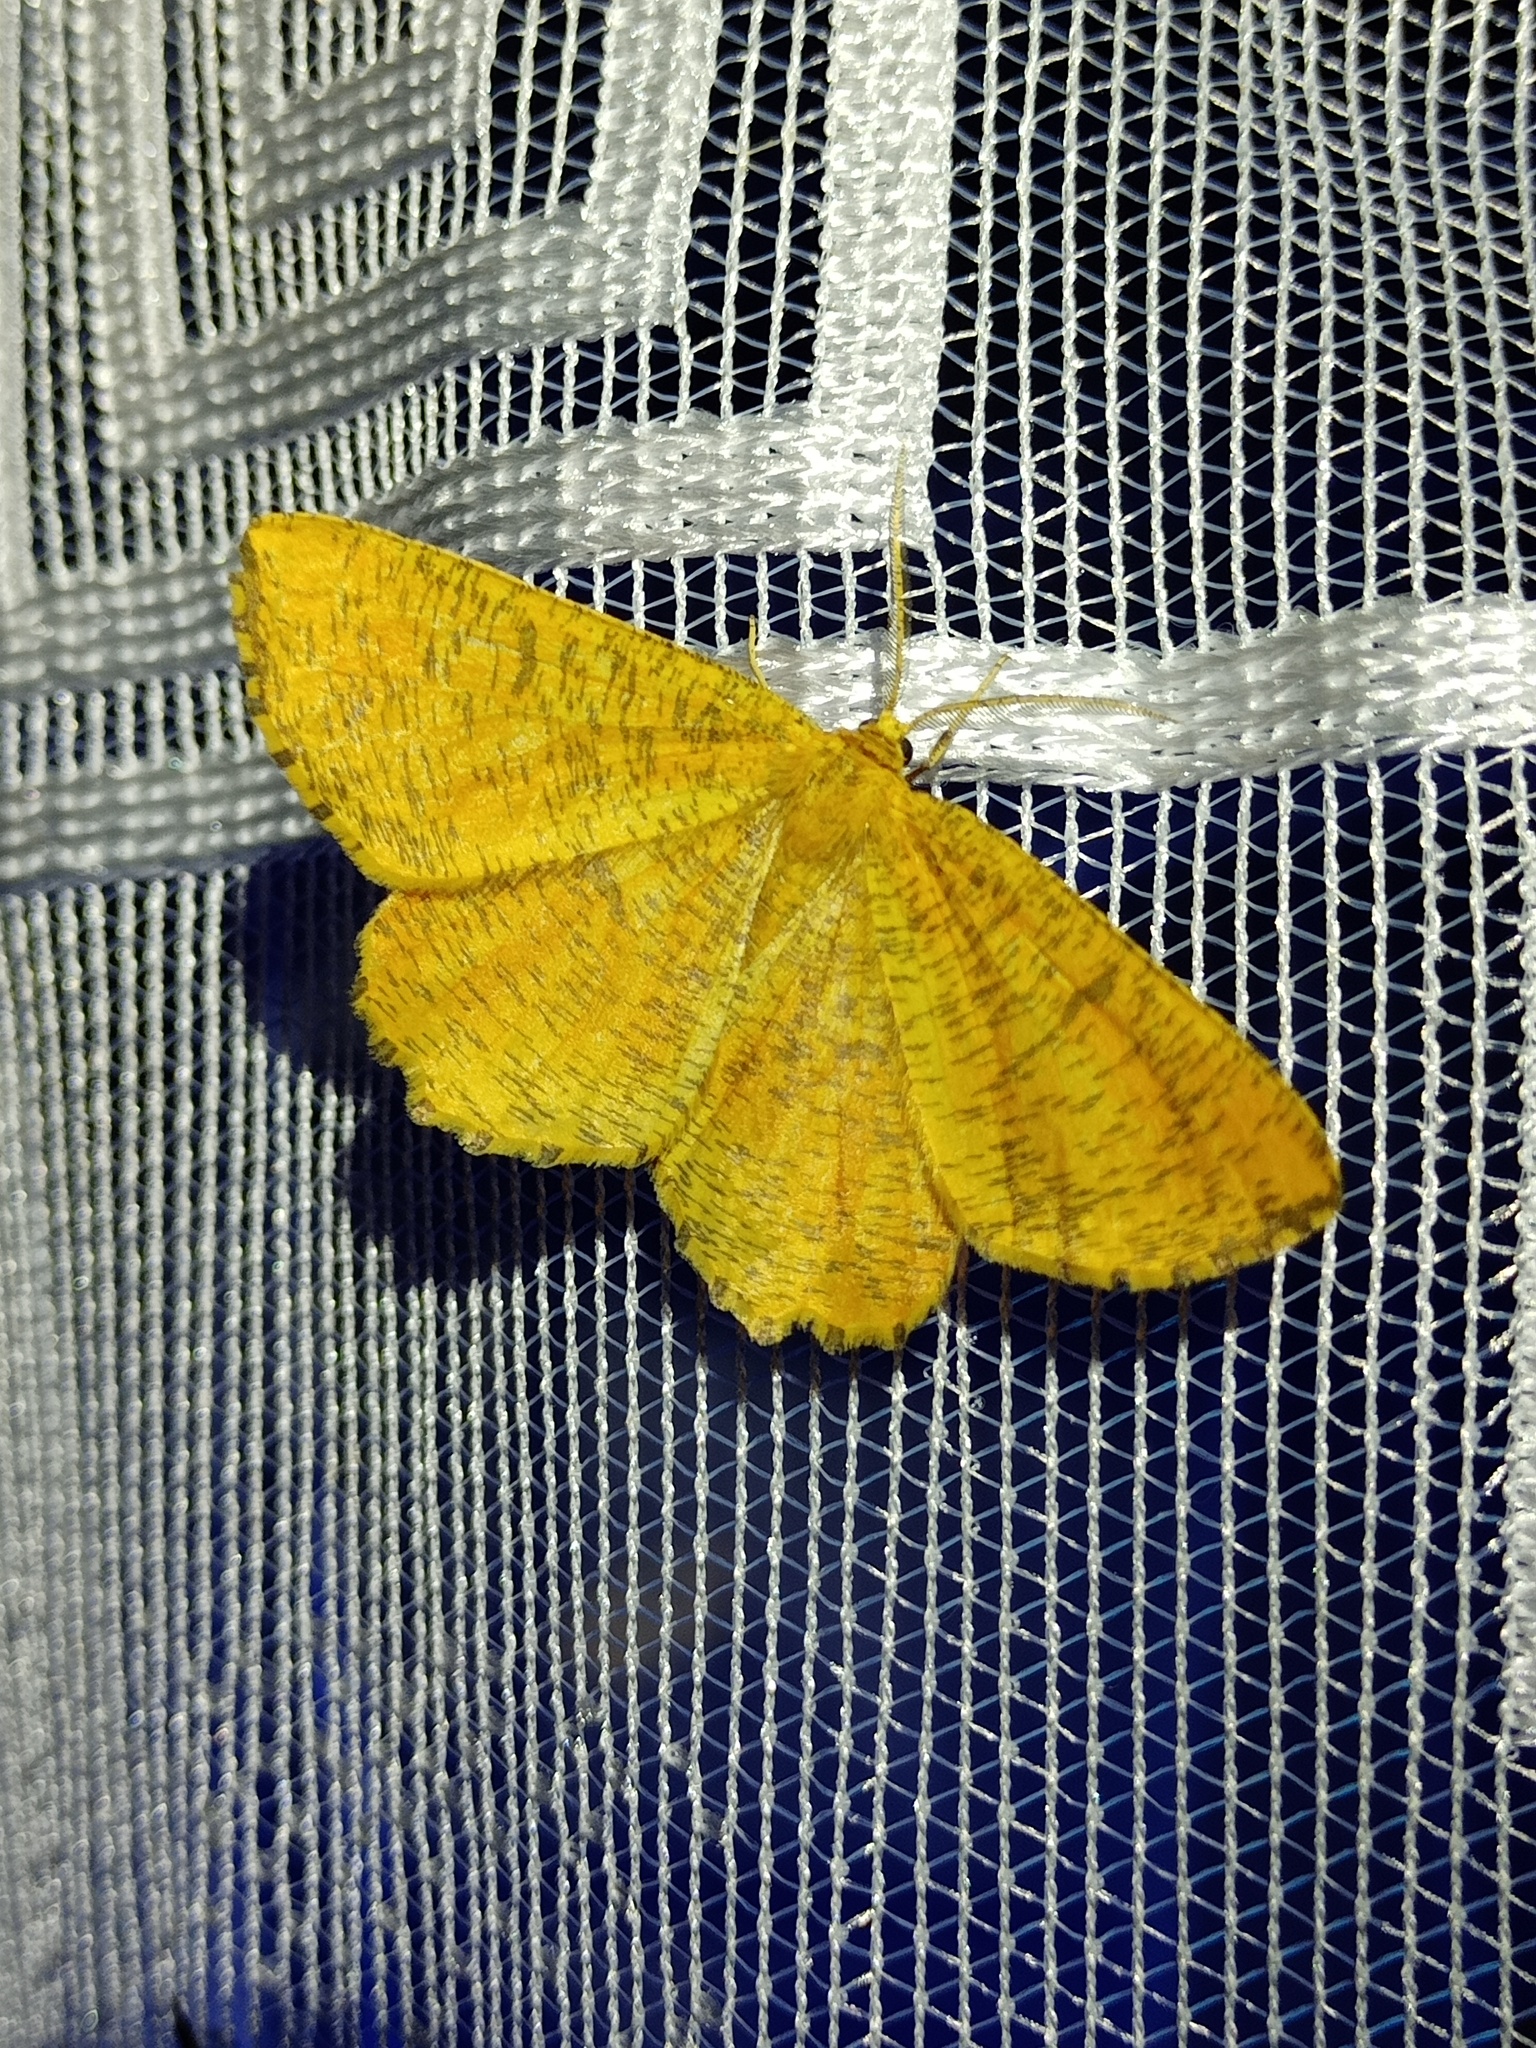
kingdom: Animalia
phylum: Arthropoda
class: Insecta
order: Lepidoptera
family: Geometridae
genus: Angerona
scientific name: Angerona prunaria
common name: Orange moth
